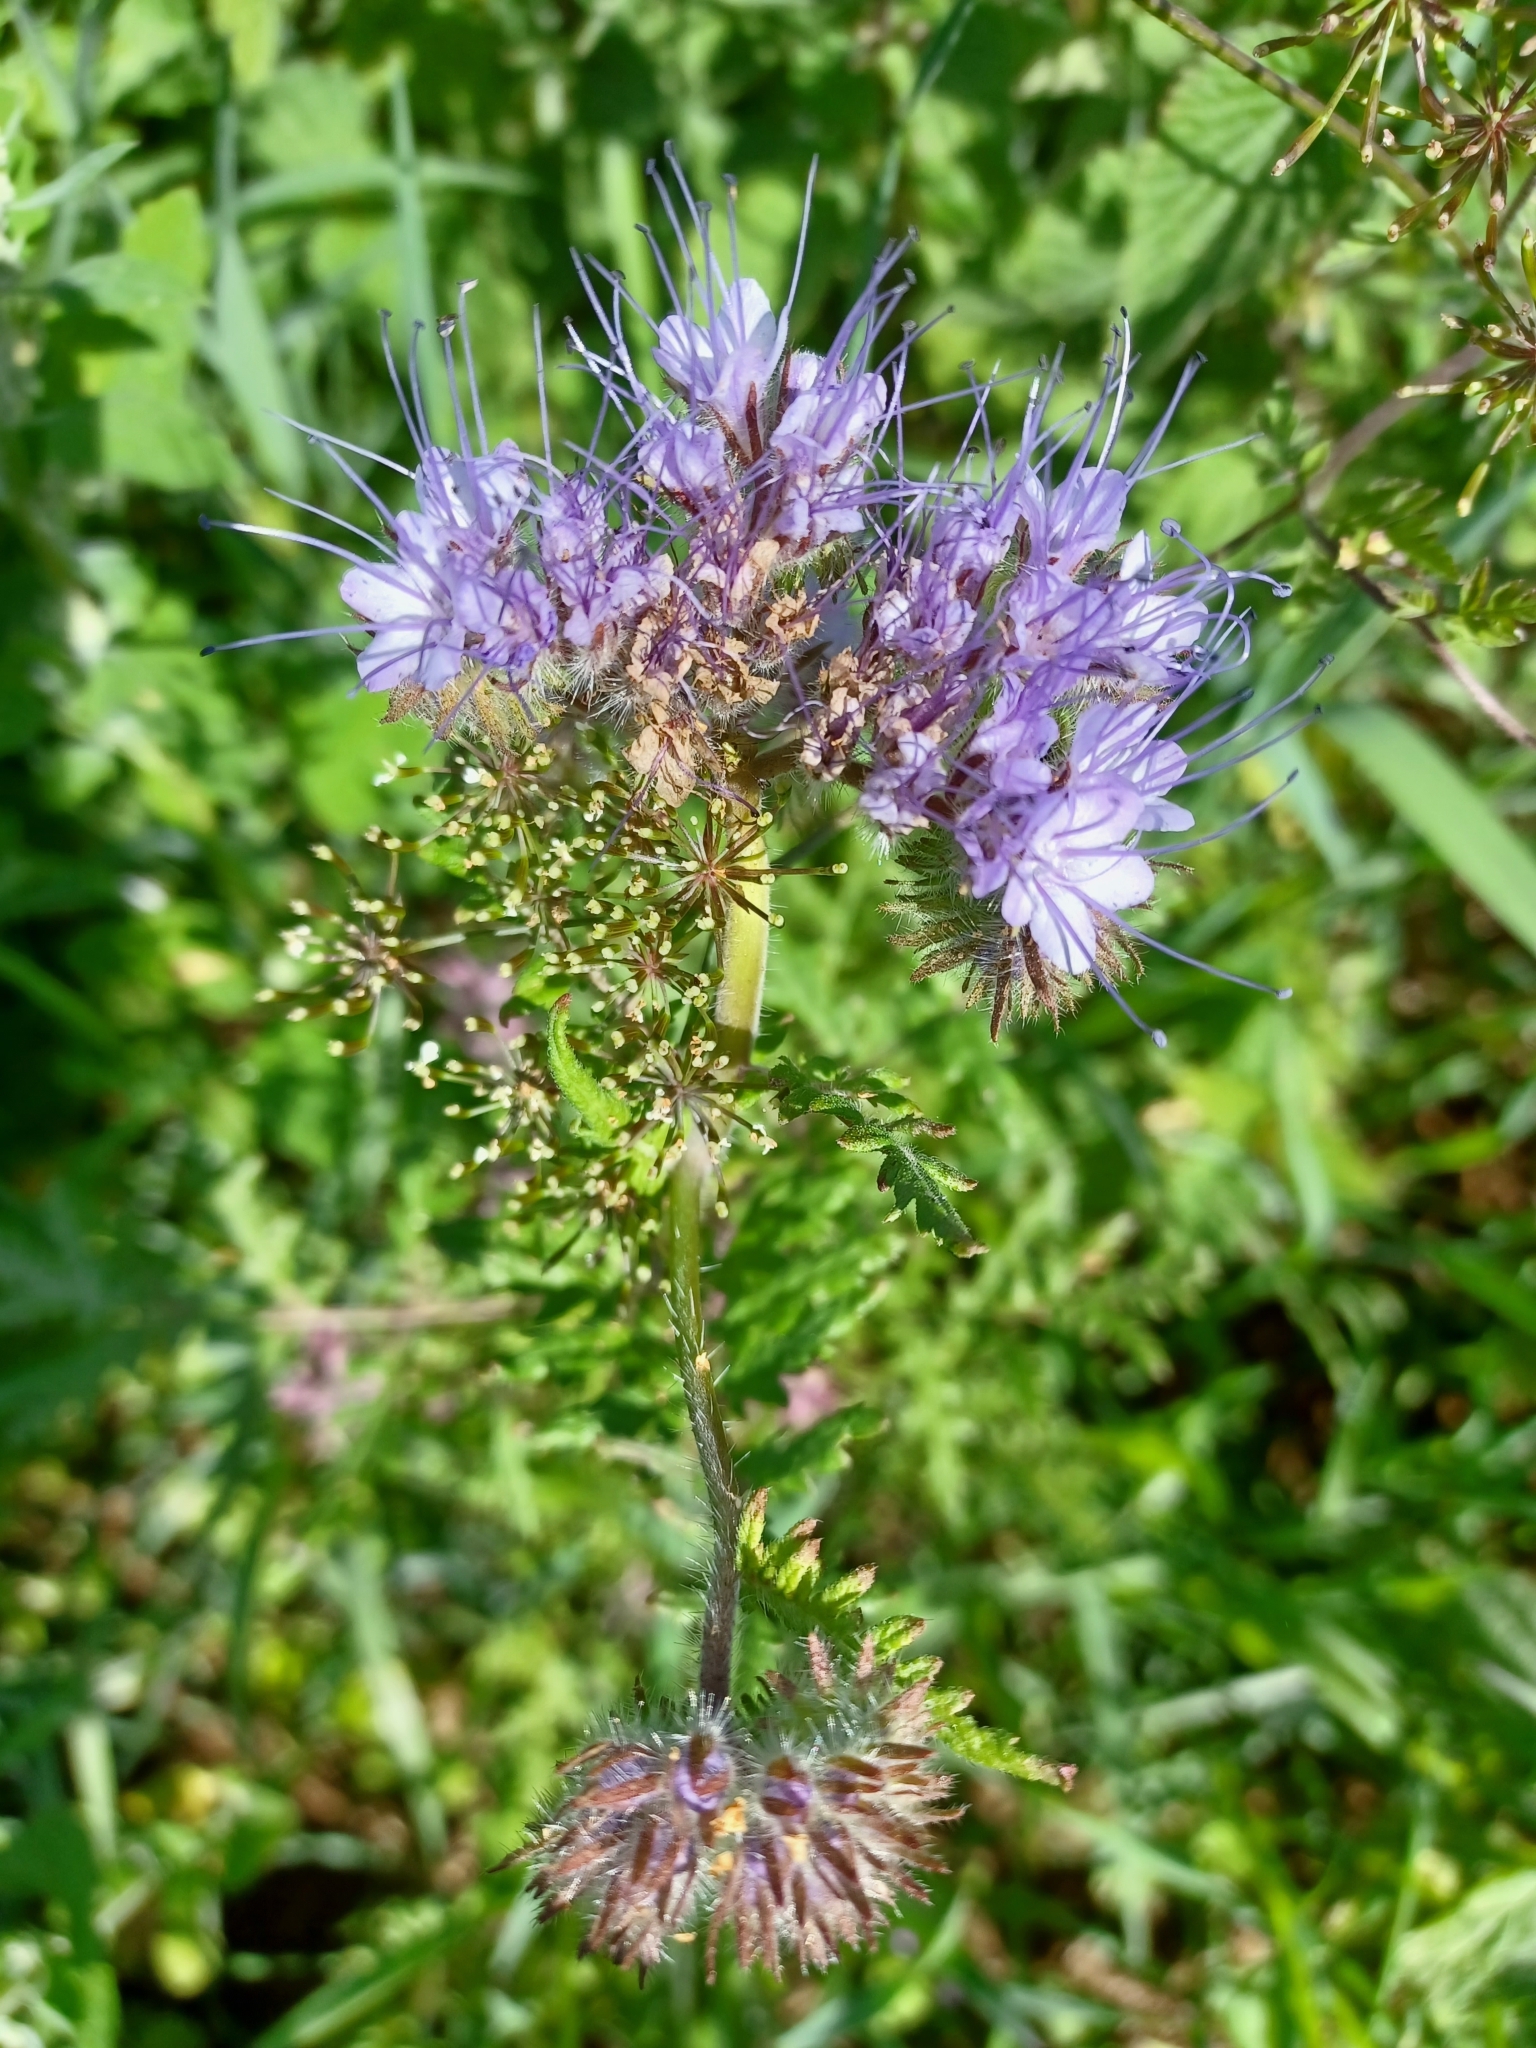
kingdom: Plantae
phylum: Tracheophyta
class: Magnoliopsida
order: Boraginales
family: Hydrophyllaceae
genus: Phacelia
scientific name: Phacelia tanacetifolia
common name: Phacelia
